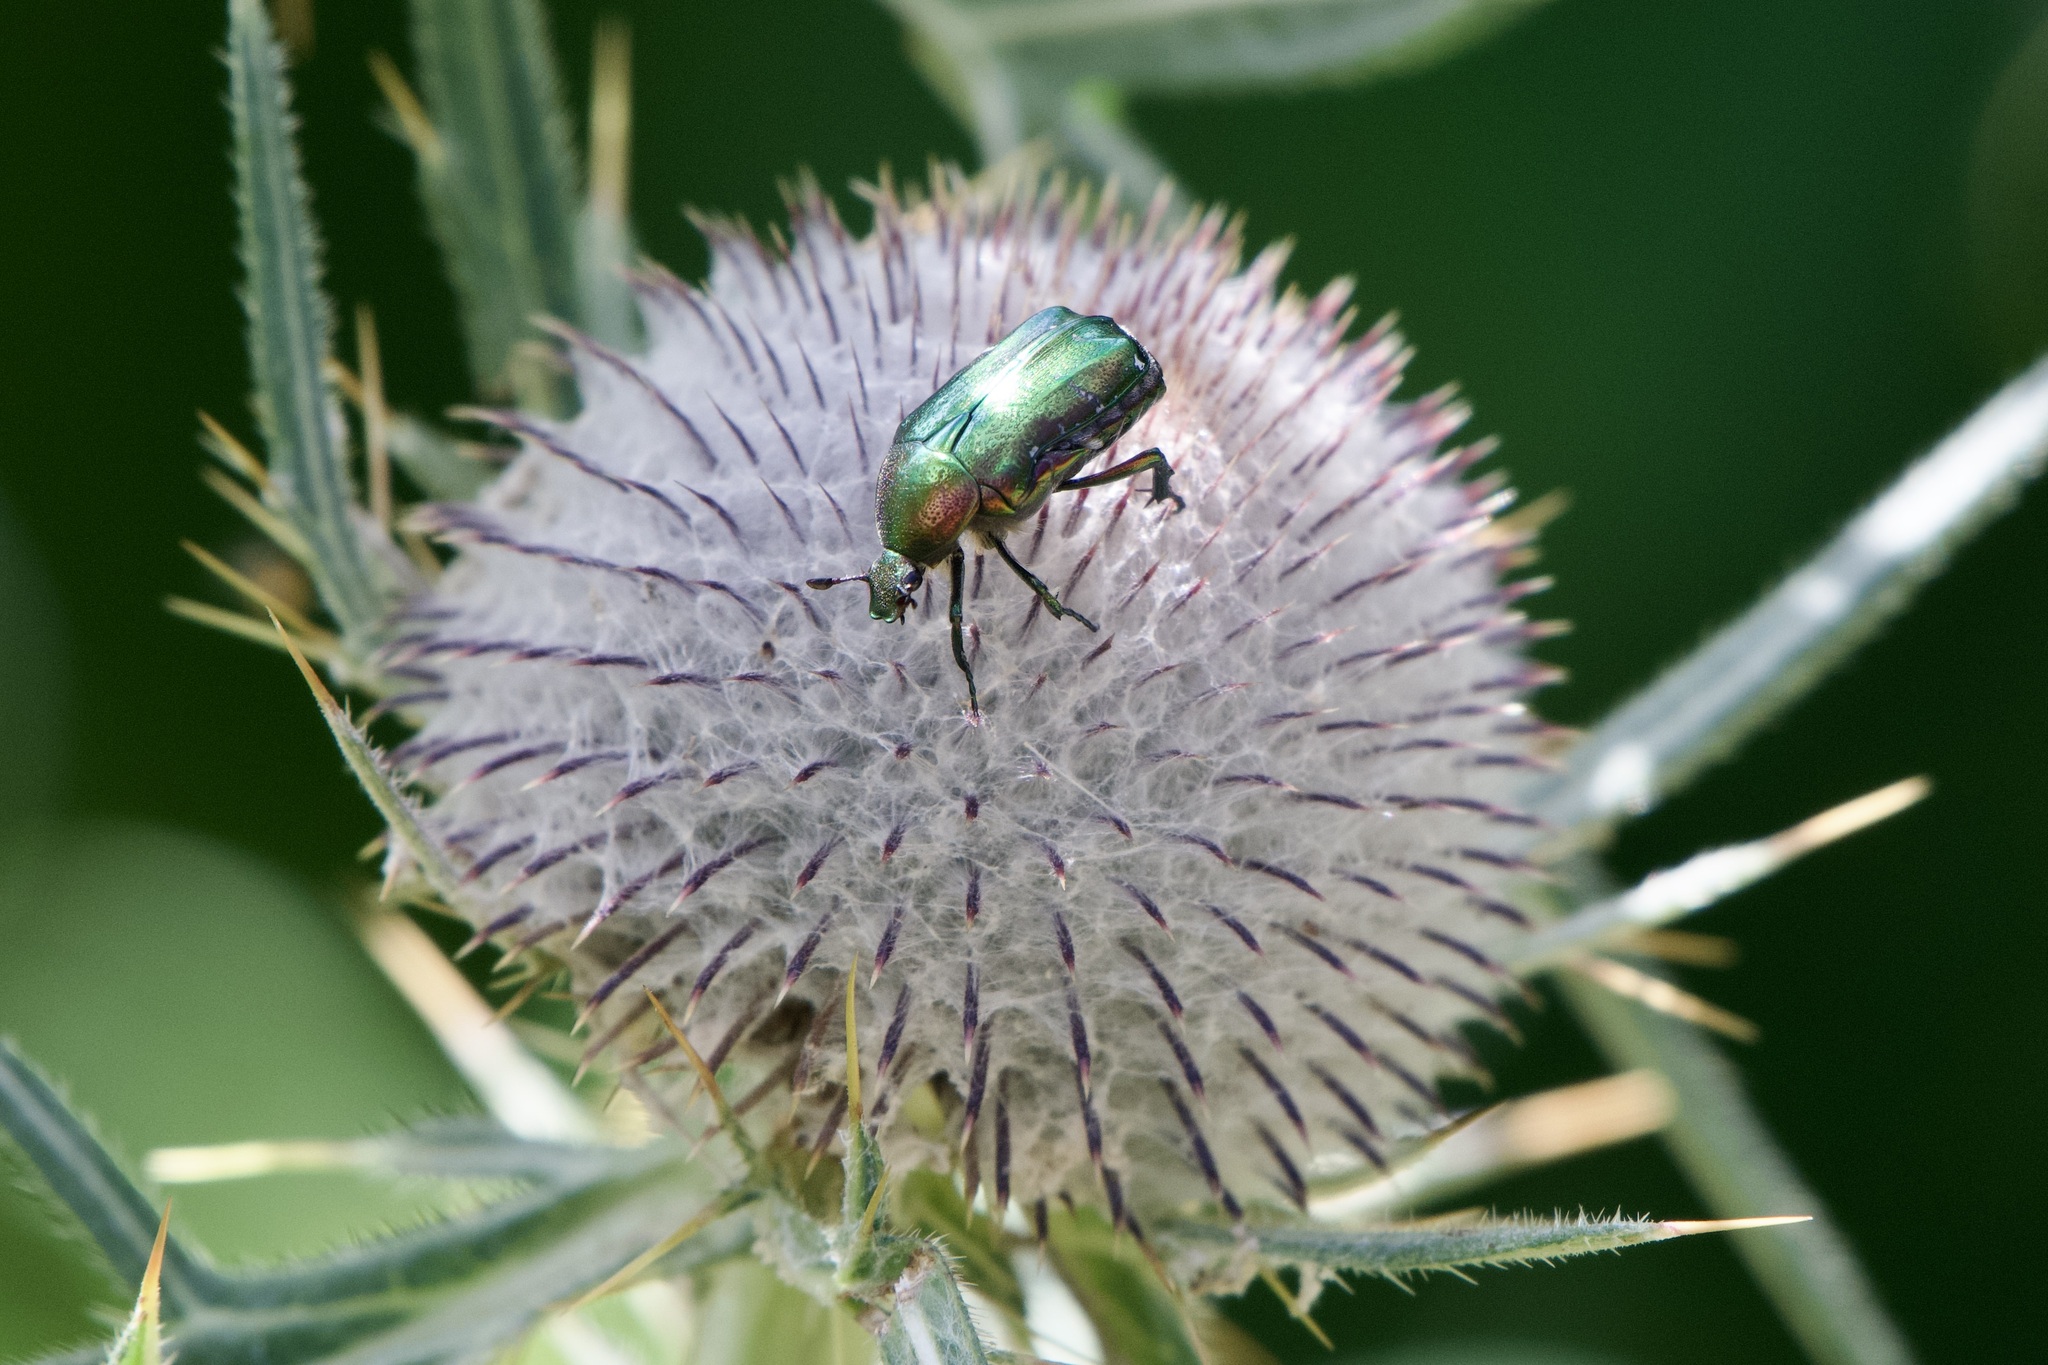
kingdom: Animalia
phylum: Arthropoda
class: Insecta
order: Coleoptera
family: Scarabaeidae
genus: Cetonia
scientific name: Cetonia aurata
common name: Rose chafer
